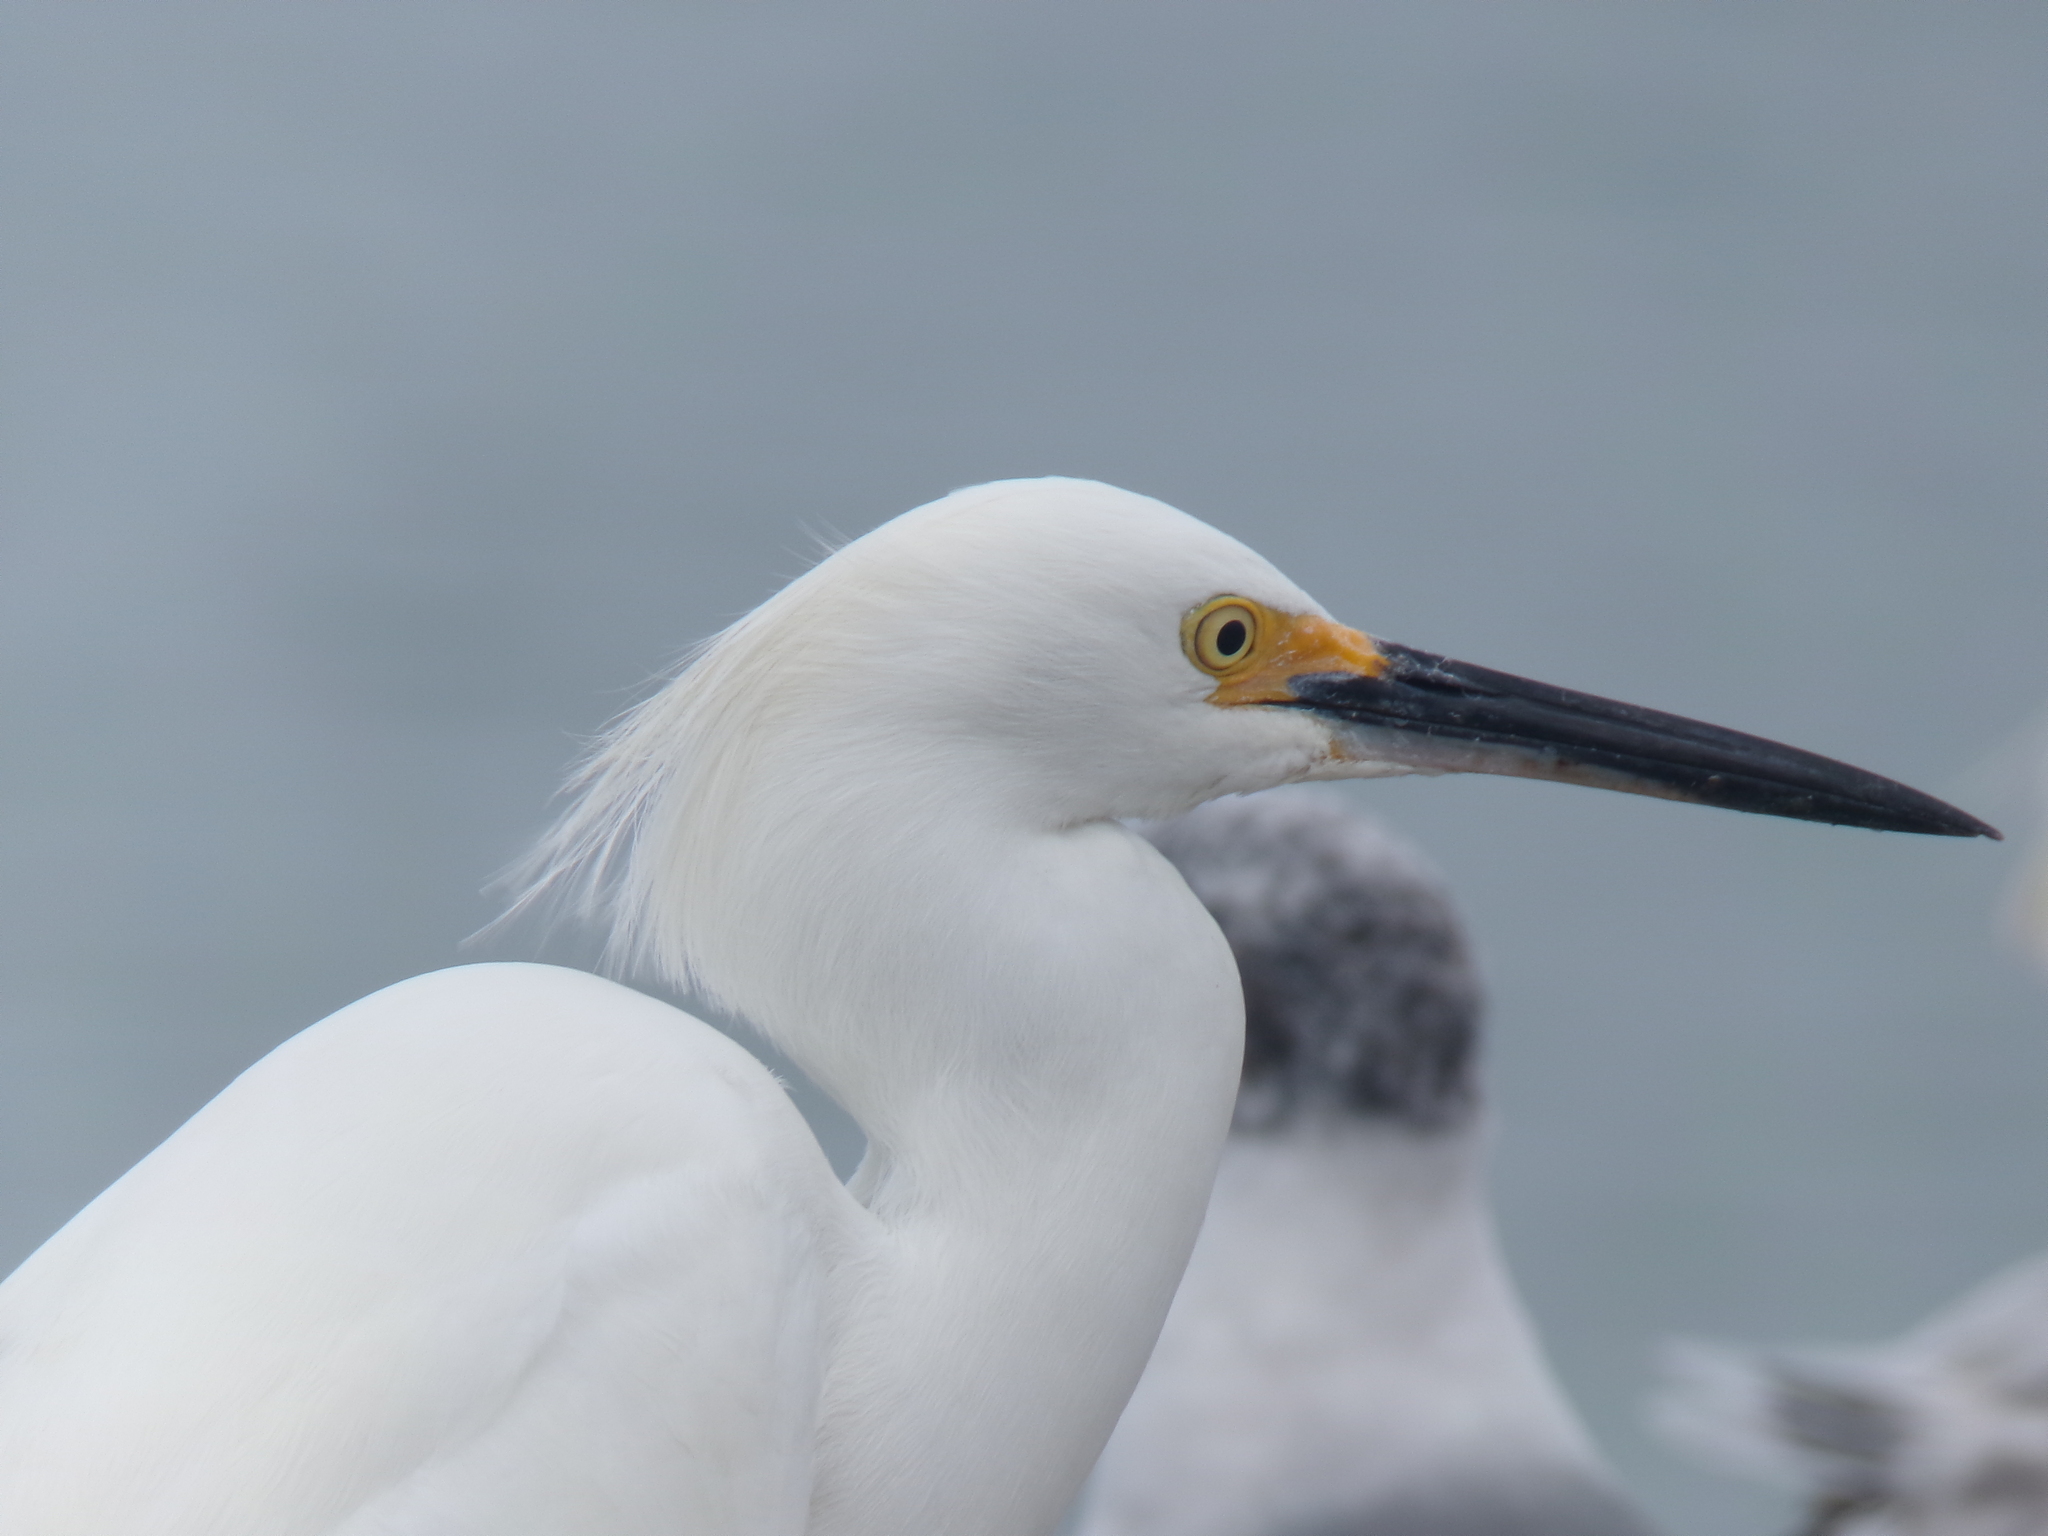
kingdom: Animalia
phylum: Chordata
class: Aves
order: Pelecaniformes
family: Ardeidae
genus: Egretta
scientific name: Egretta thula
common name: Snowy egret
